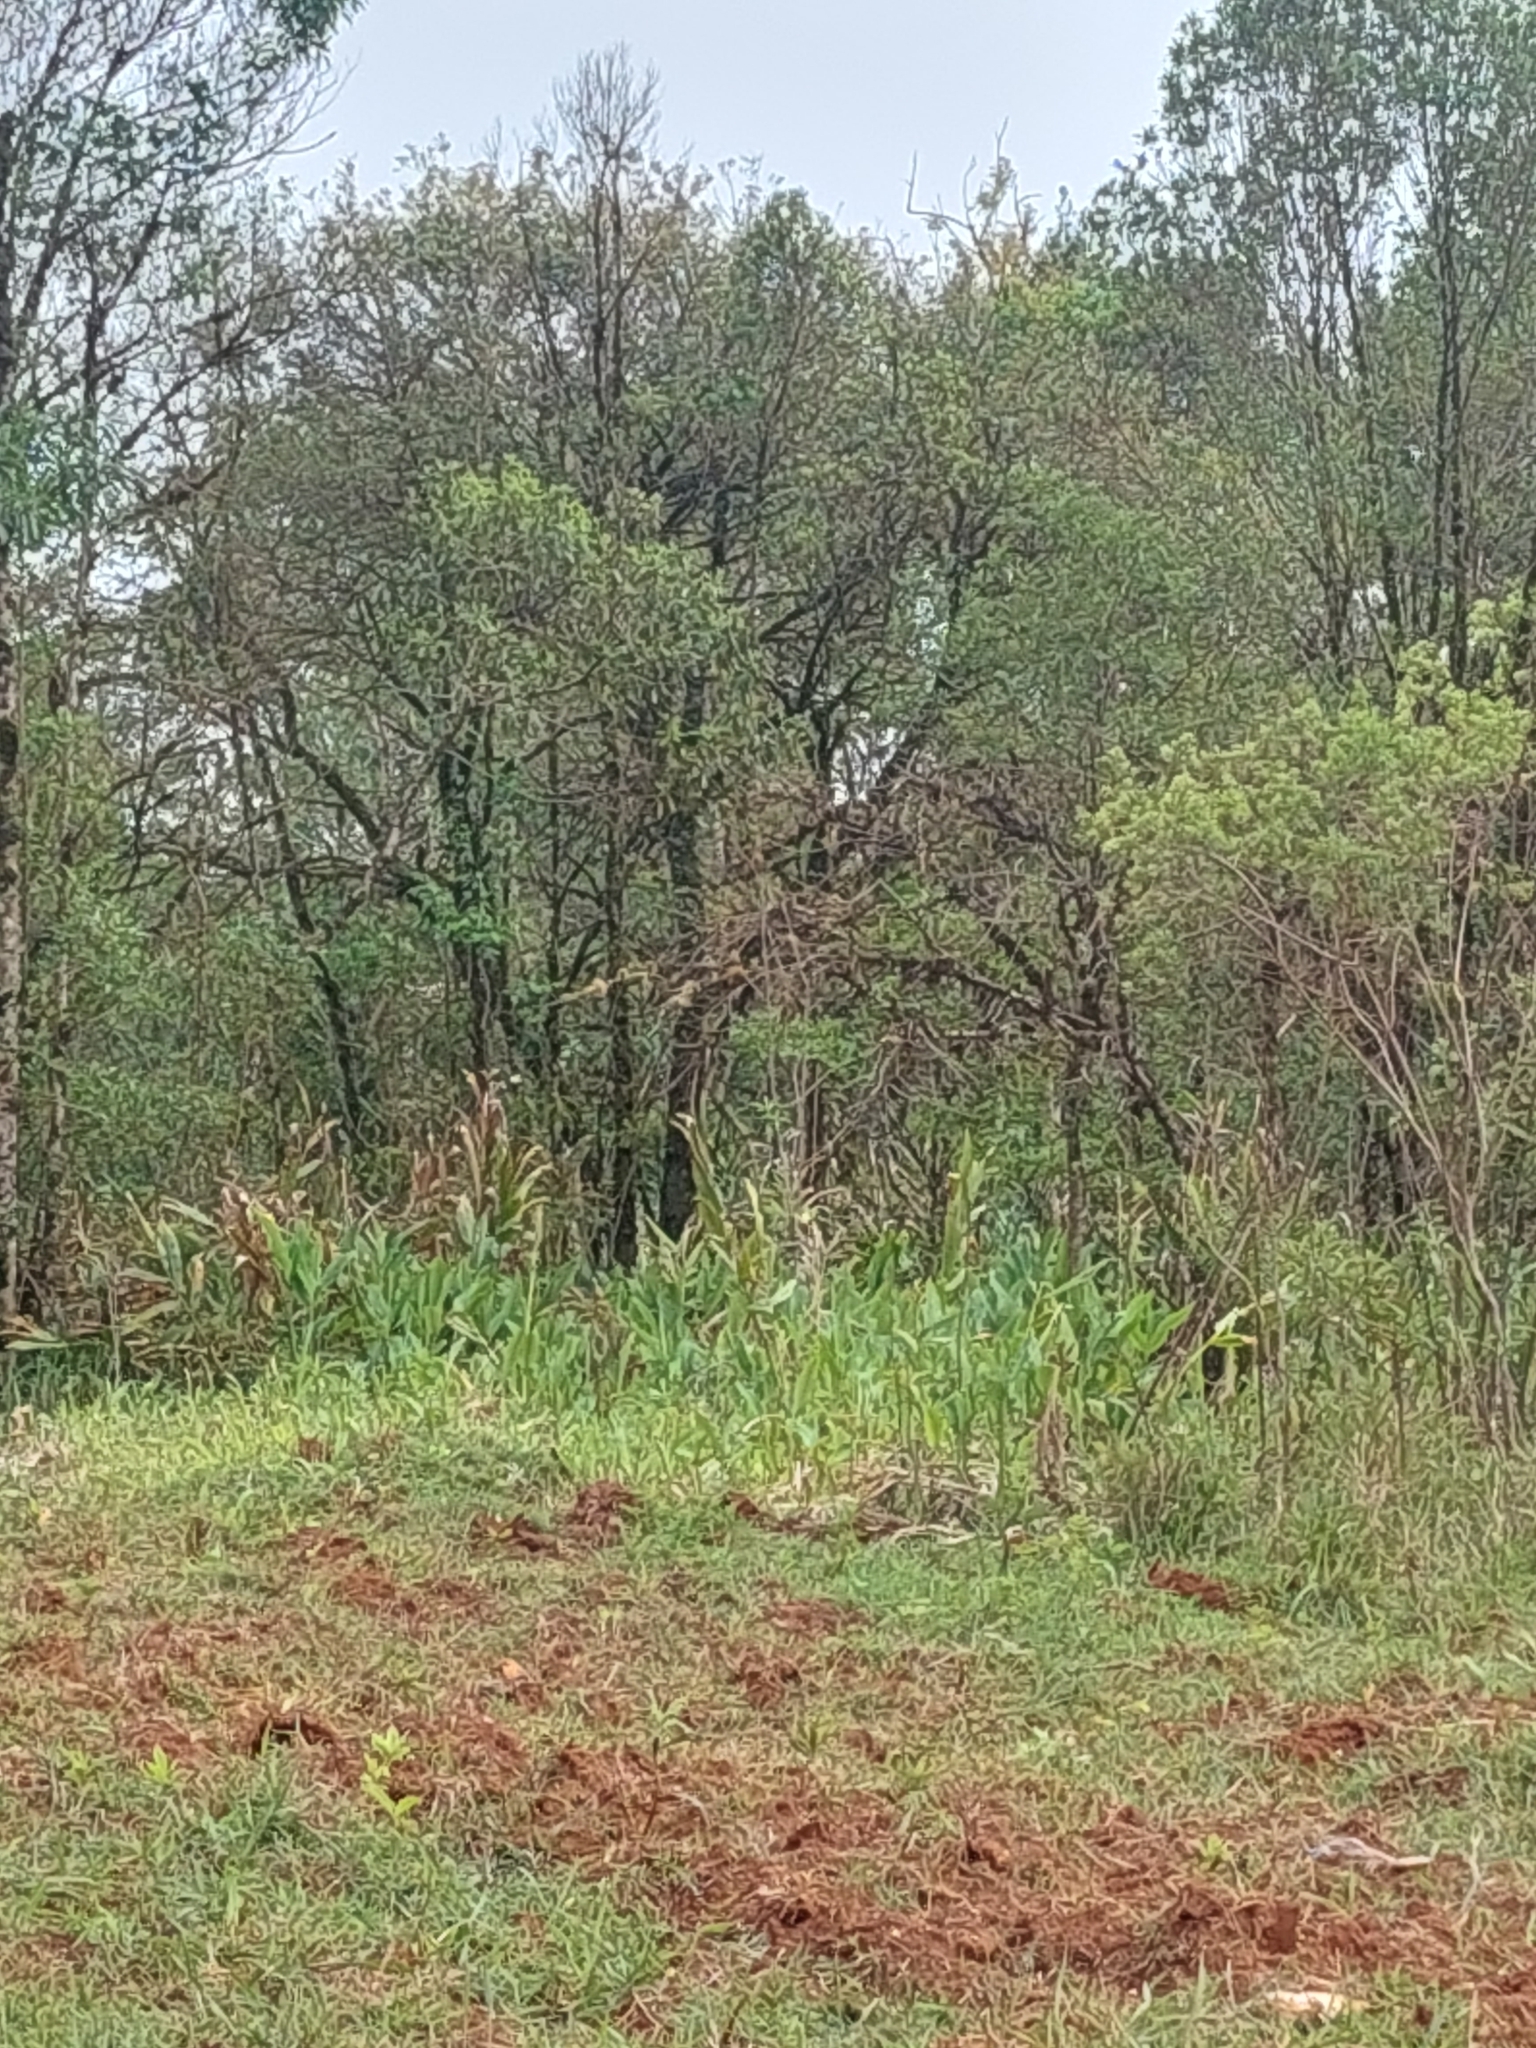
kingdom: Plantae
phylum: Tracheophyta
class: Liliopsida
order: Zingiberales
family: Zingiberaceae
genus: Hedychium
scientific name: Hedychium coronarium
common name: White garland-lily
